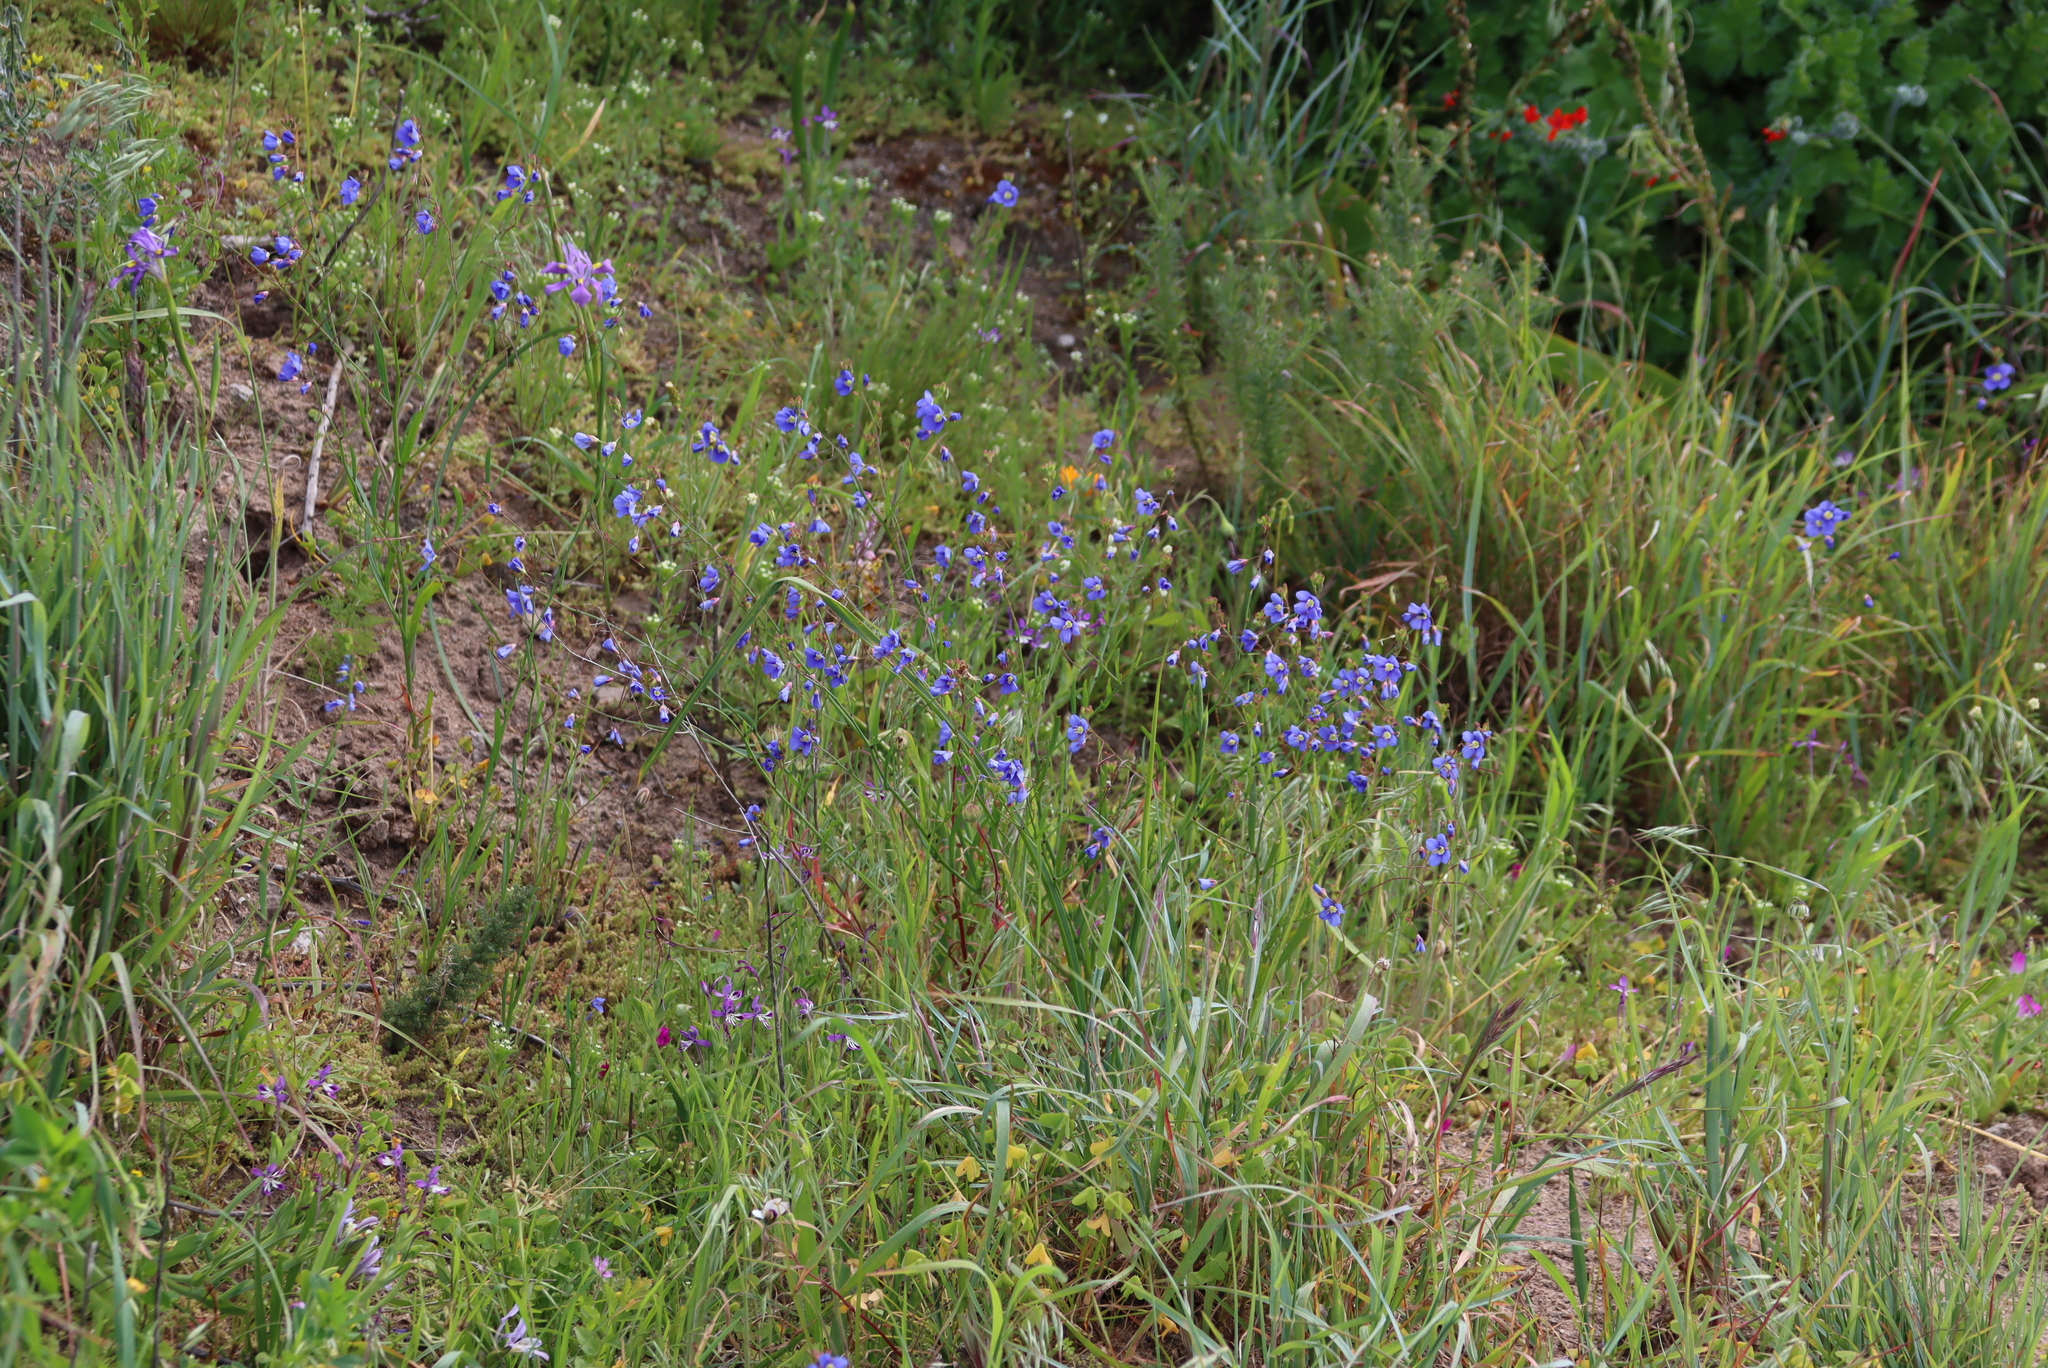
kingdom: Plantae
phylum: Tracheophyta
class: Magnoliopsida
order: Brassicales
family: Brassicaceae
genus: Heliophila
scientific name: Heliophila coronopifolia
